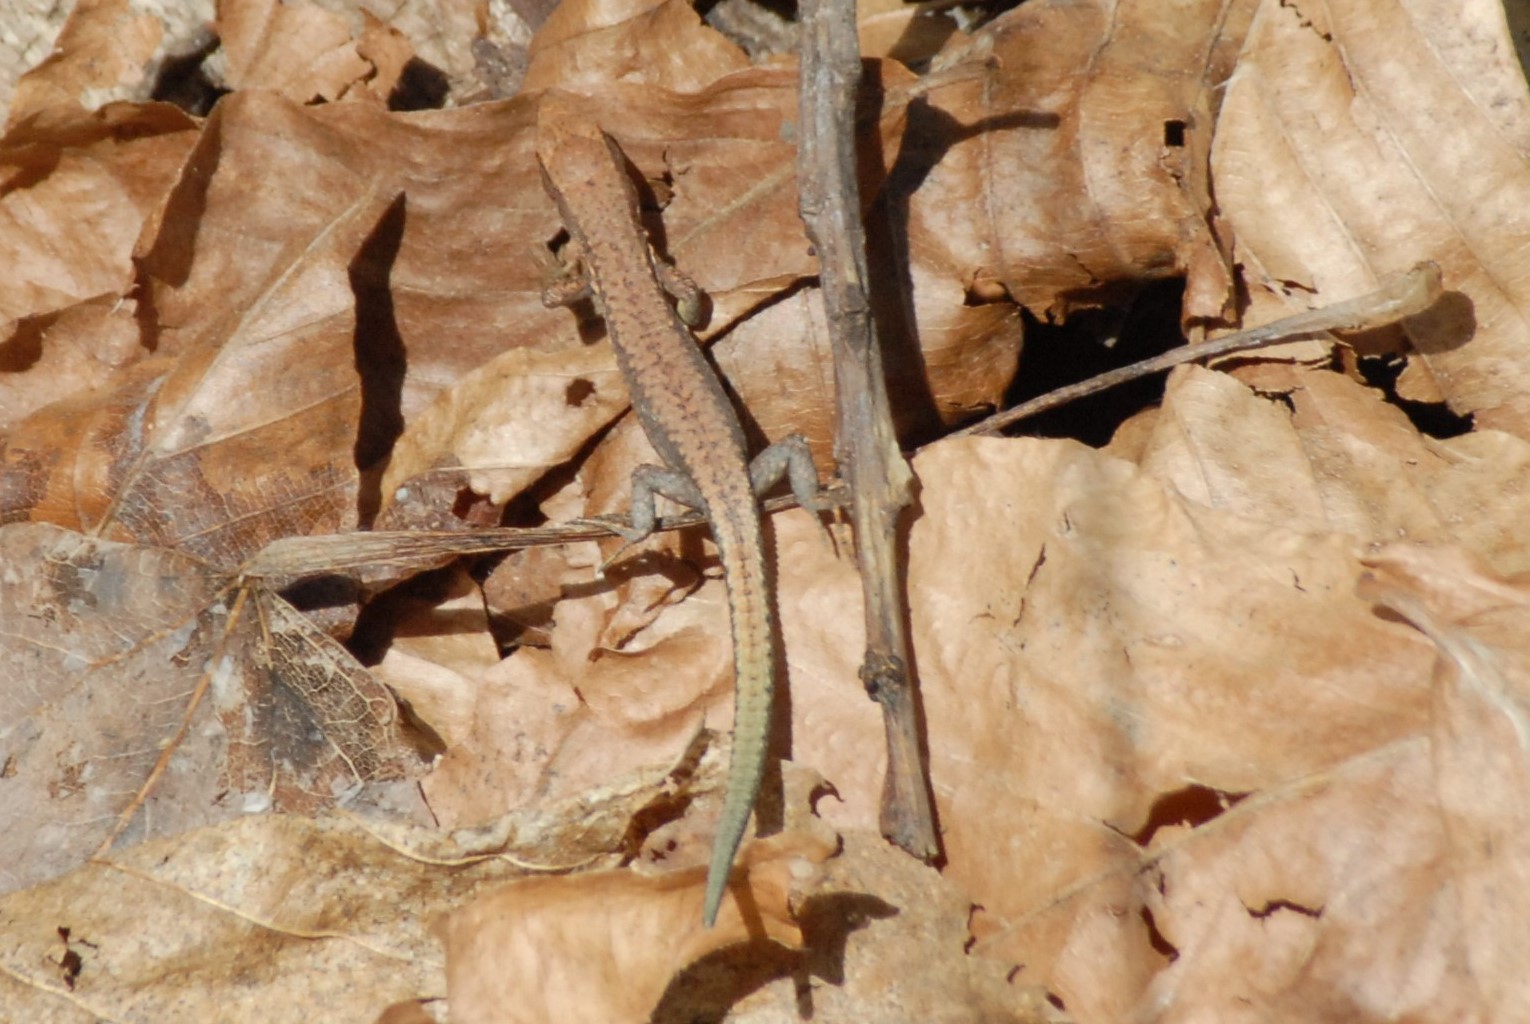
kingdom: Animalia
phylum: Chordata
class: Squamata
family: Lacertidae
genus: Darevskia
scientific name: Darevskia derjugini
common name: Derjugin's lizard
